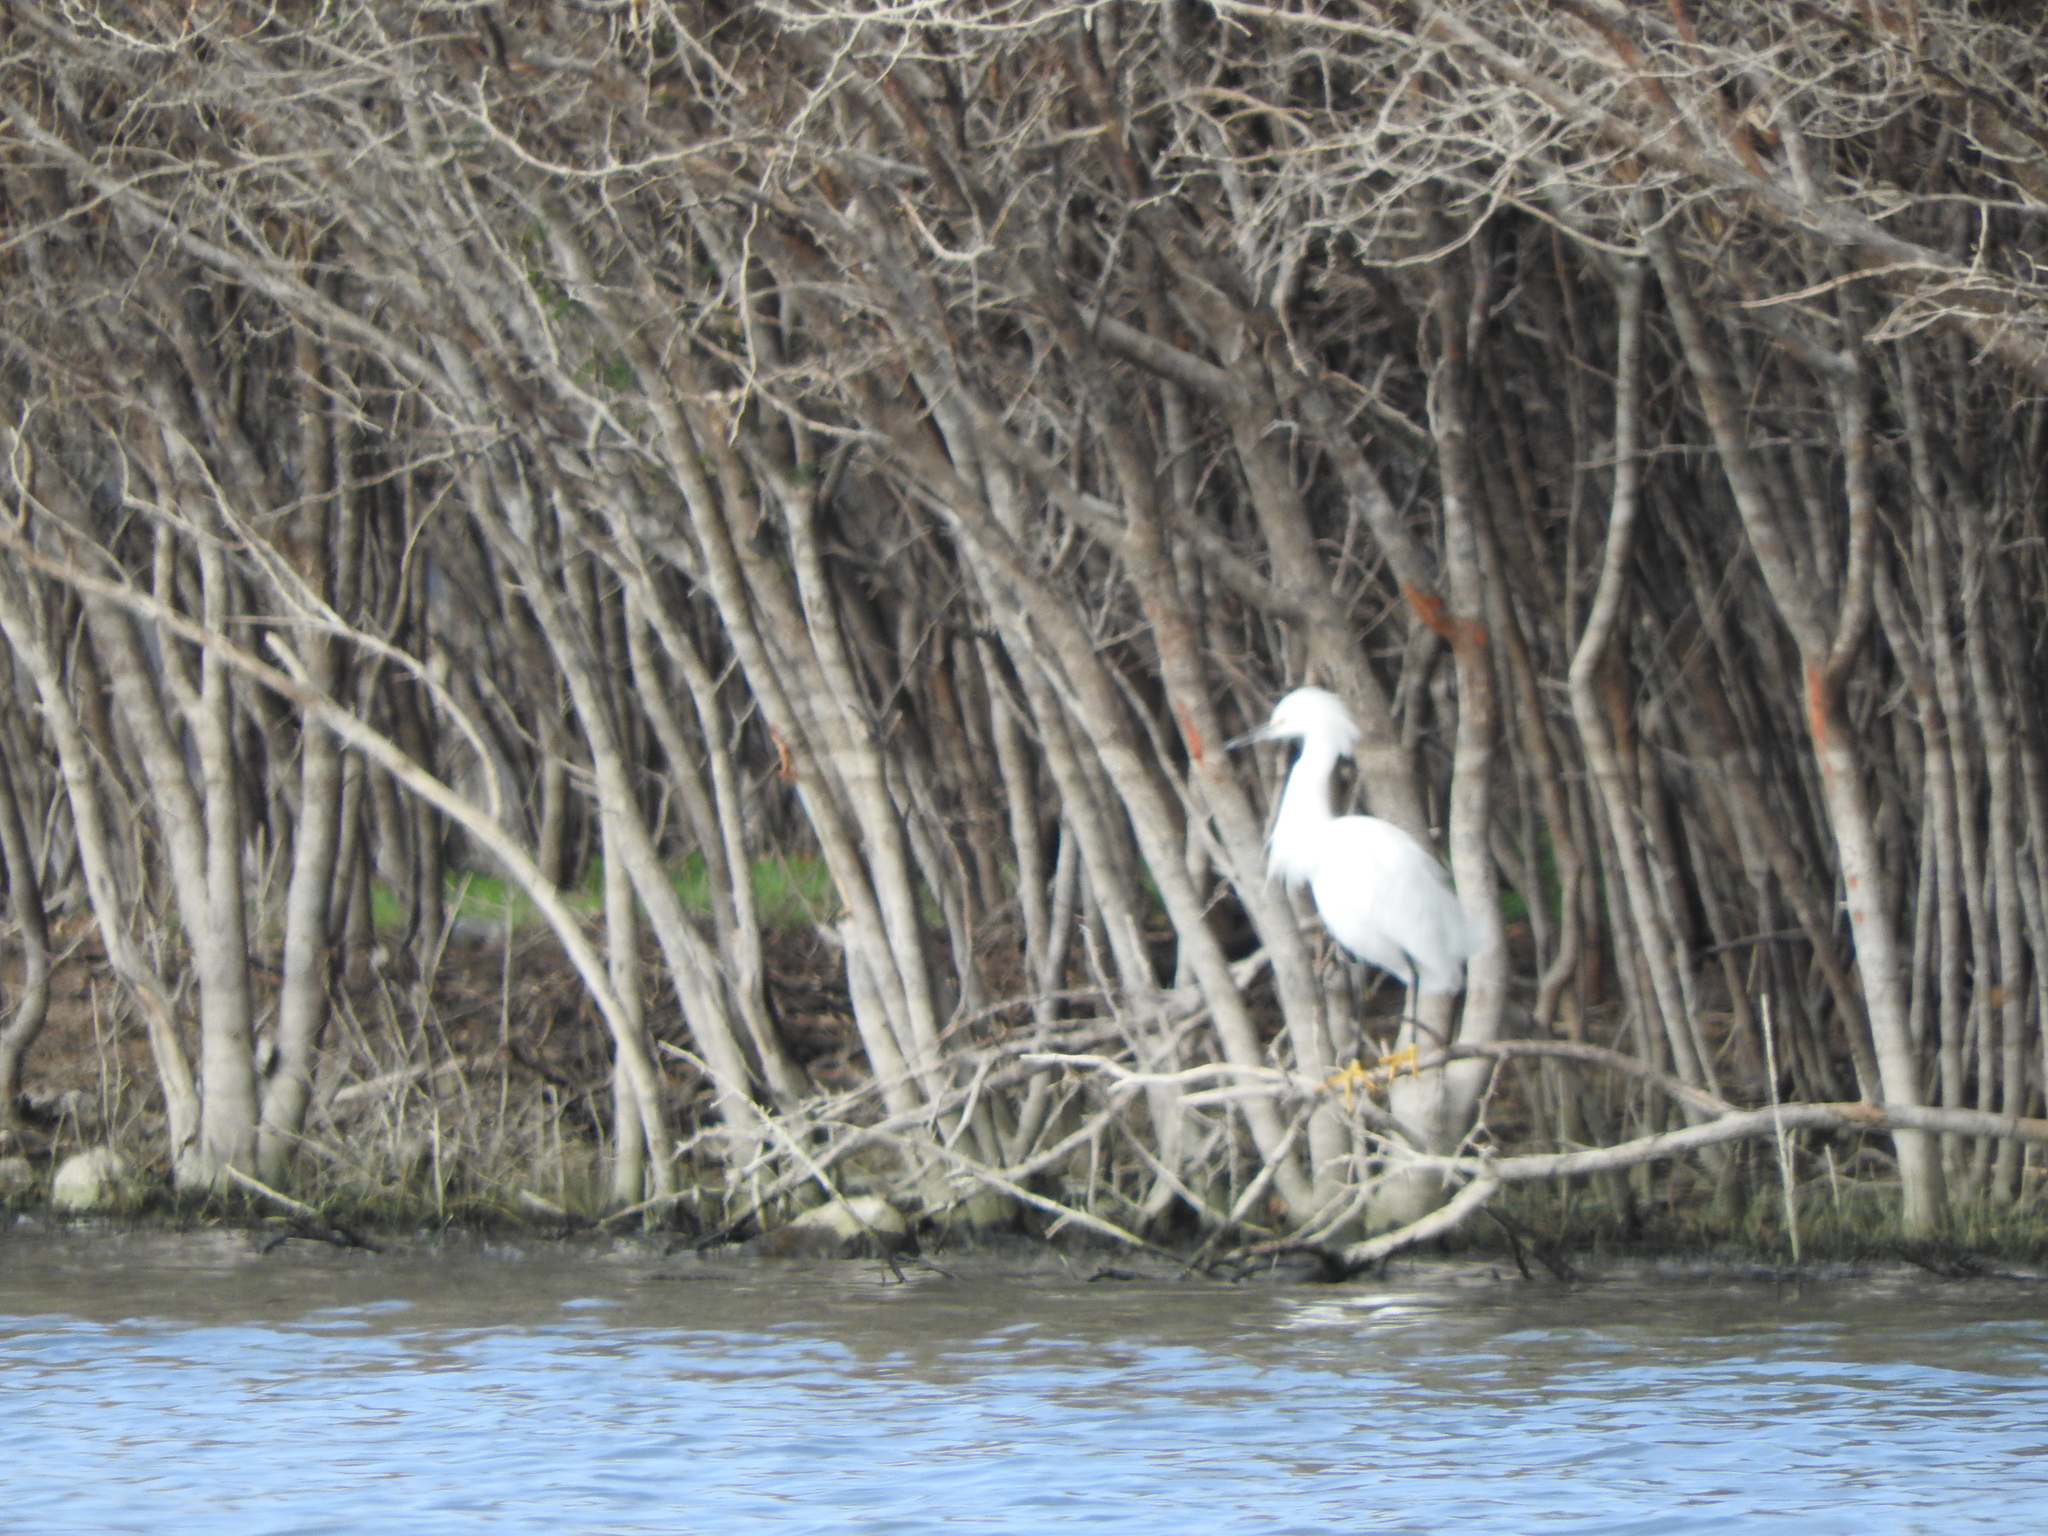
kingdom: Animalia
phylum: Chordata
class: Aves
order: Pelecaniformes
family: Ardeidae
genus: Egretta
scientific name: Egretta thula
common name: Snowy egret
